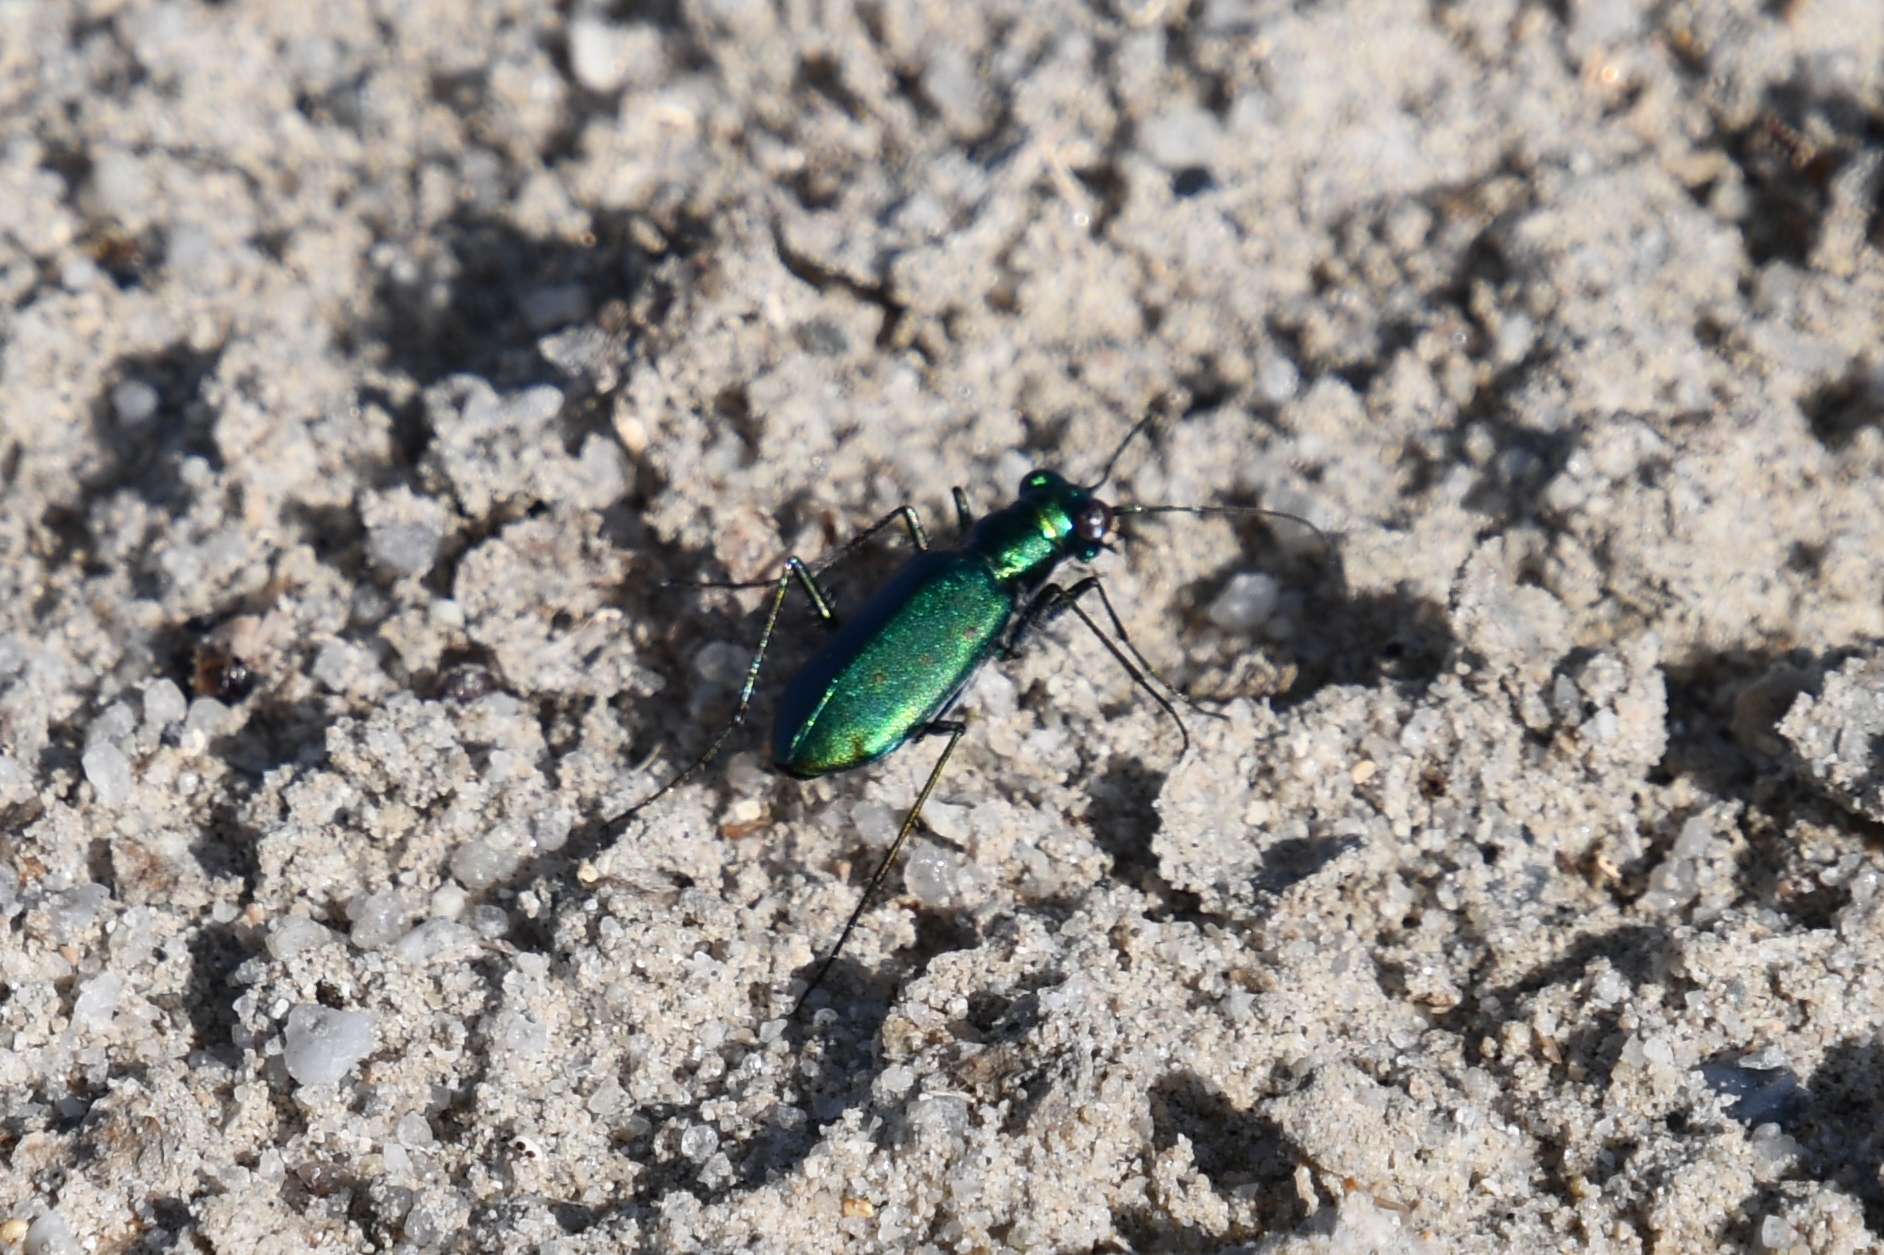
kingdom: Animalia
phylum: Arthropoda
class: Insecta
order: Coleoptera
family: Carabidae
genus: Cicindela
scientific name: Cicindela punctulata
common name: Punctured tiger beetle
